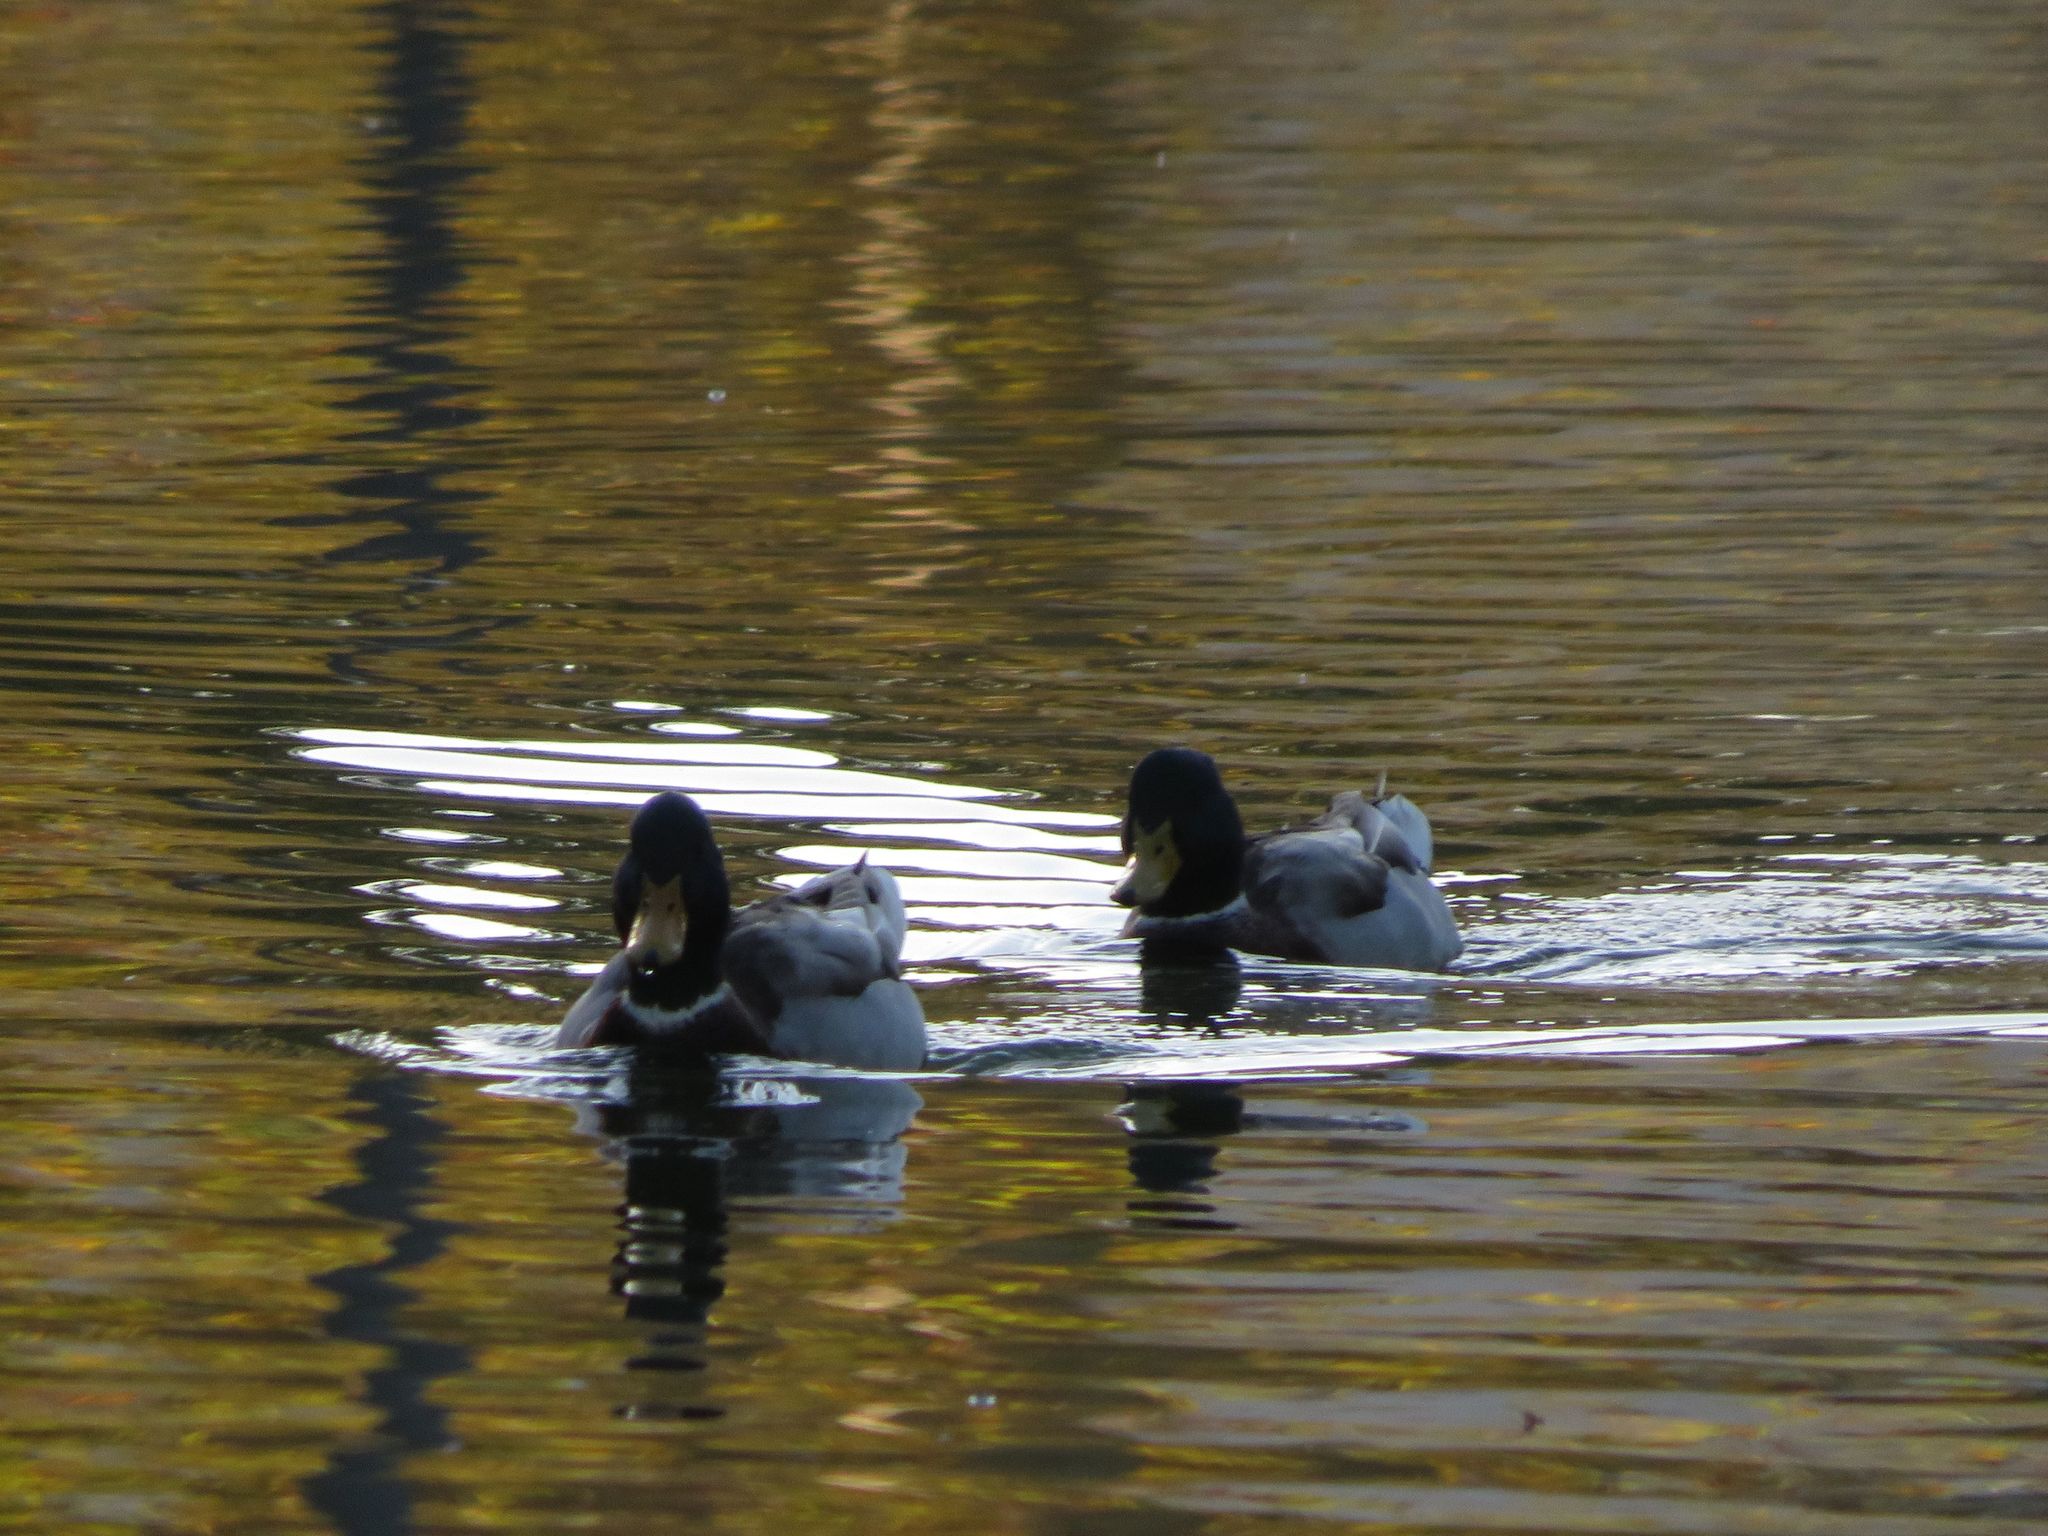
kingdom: Animalia
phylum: Chordata
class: Aves
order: Anseriformes
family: Anatidae
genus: Anas
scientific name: Anas platyrhynchos
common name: Mallard
